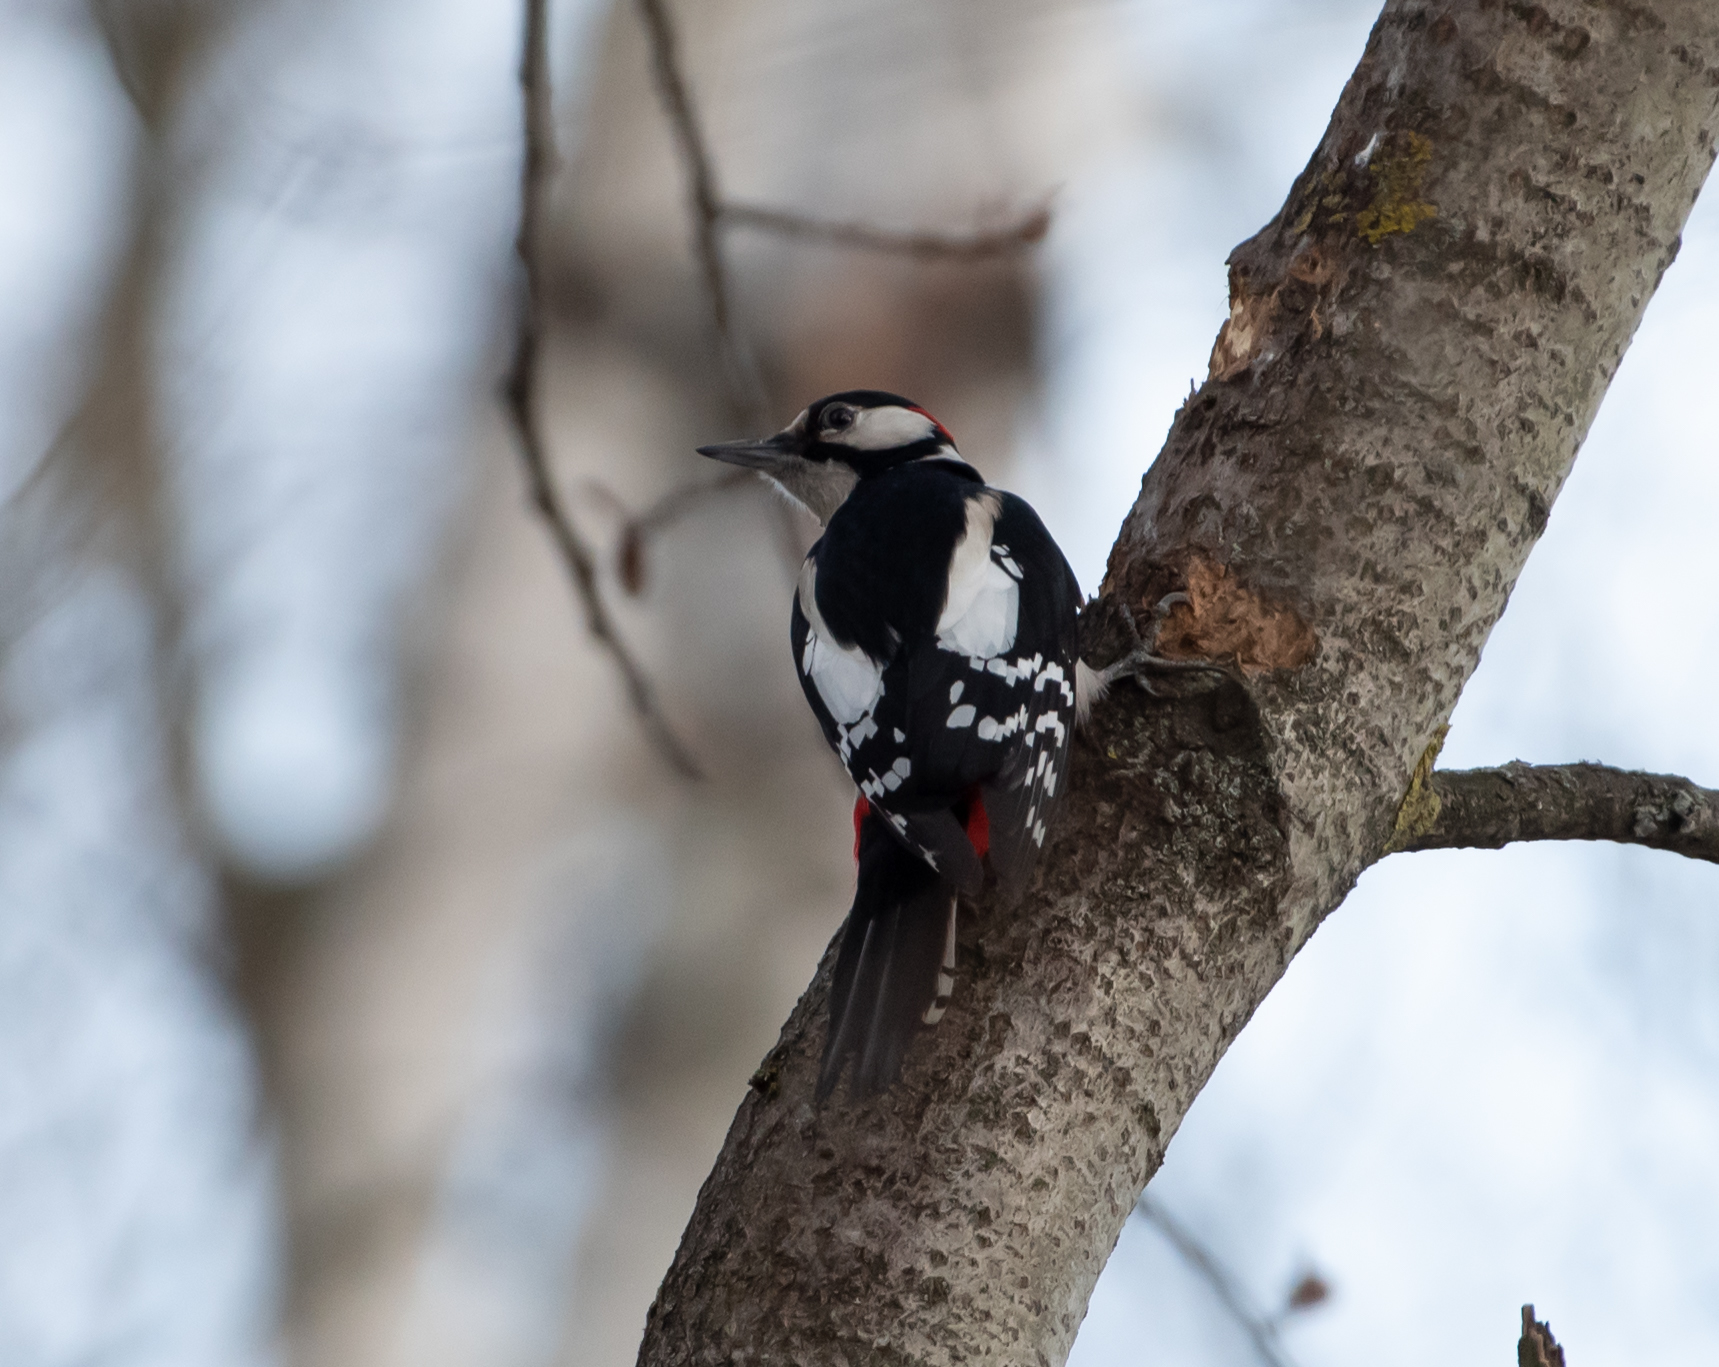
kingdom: Animalia
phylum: Chordata
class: Aves
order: Piciformes
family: Picidae
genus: Dendrocopos
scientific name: Dendrocopos major
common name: Great spotted woodpecker
